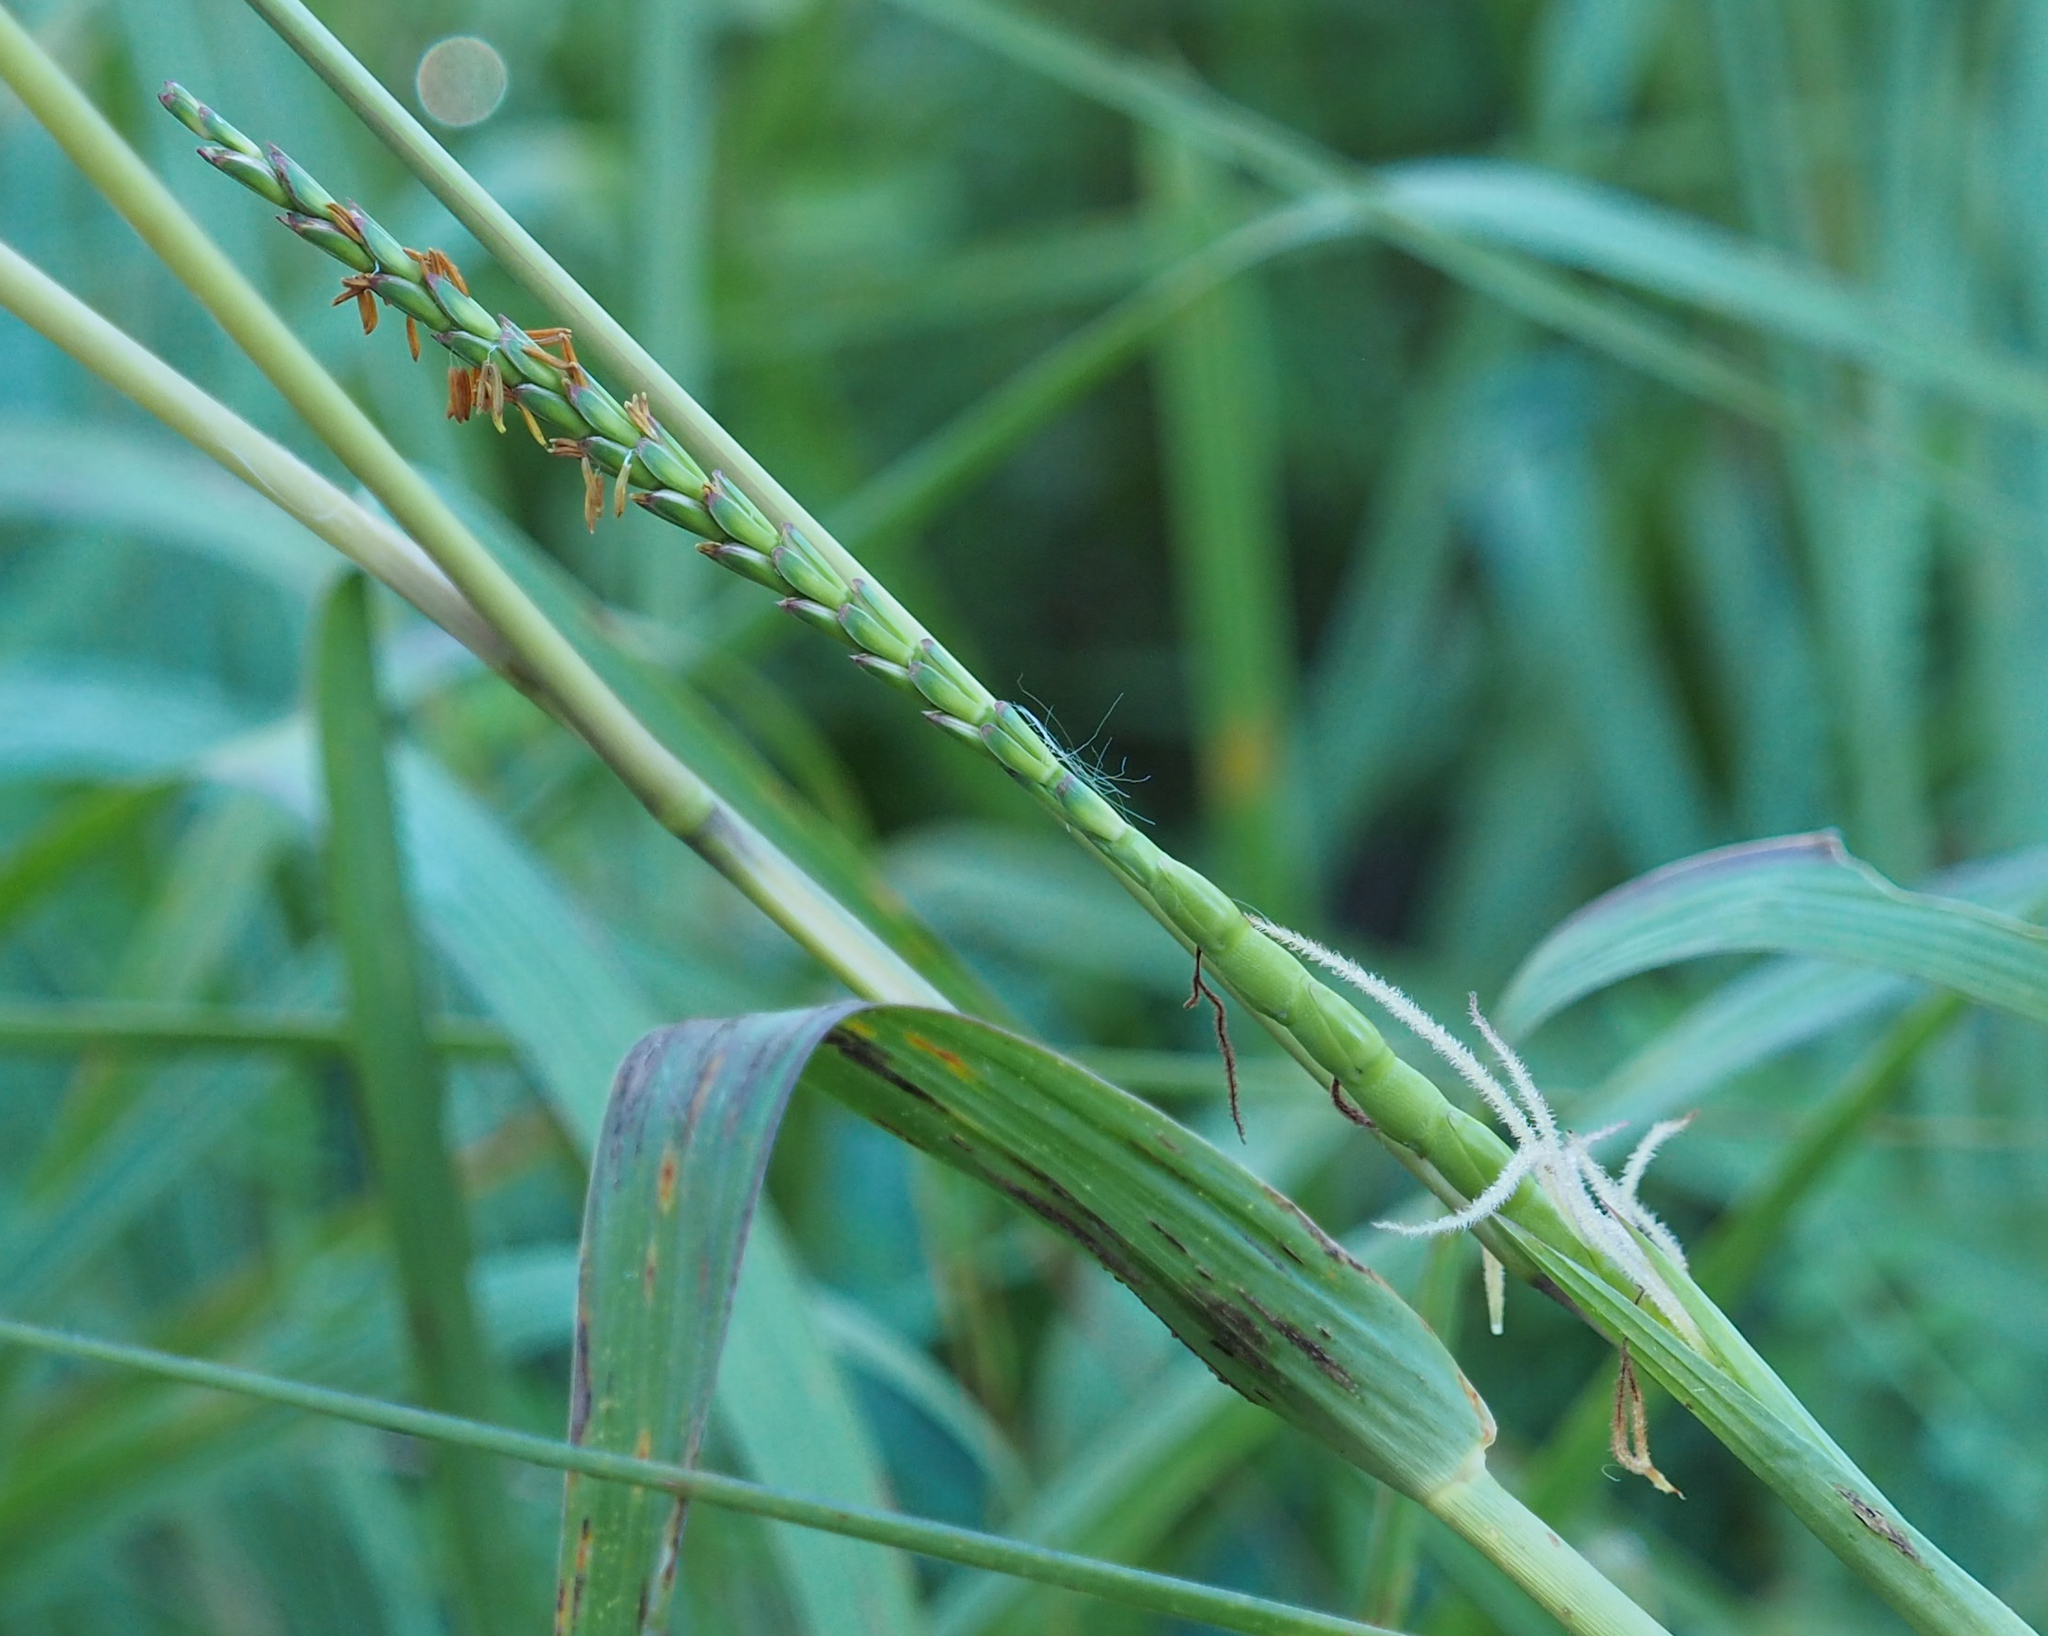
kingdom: Plantae
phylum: Tracheophyta
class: Liliopsida
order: Poales
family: Poaceae
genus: Tripsacum
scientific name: Tripsacum dactyloides
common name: Buffalo-grass
